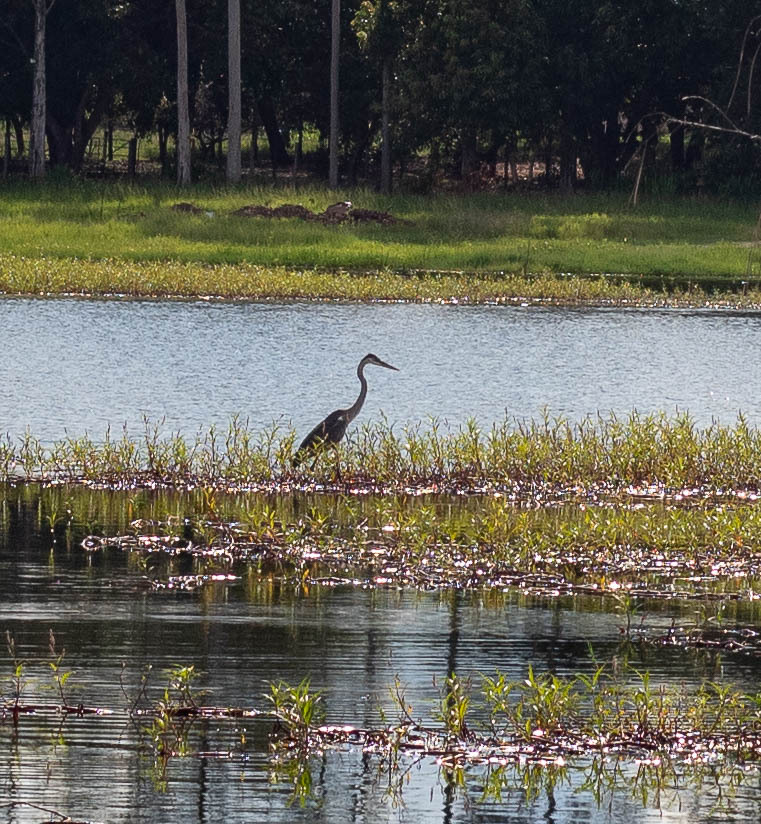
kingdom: Animalia
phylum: Chordata
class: Aves
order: Pelecaniformes
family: Ardeidae
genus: Ardea
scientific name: Ardea cocoi
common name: Cocoi heron
